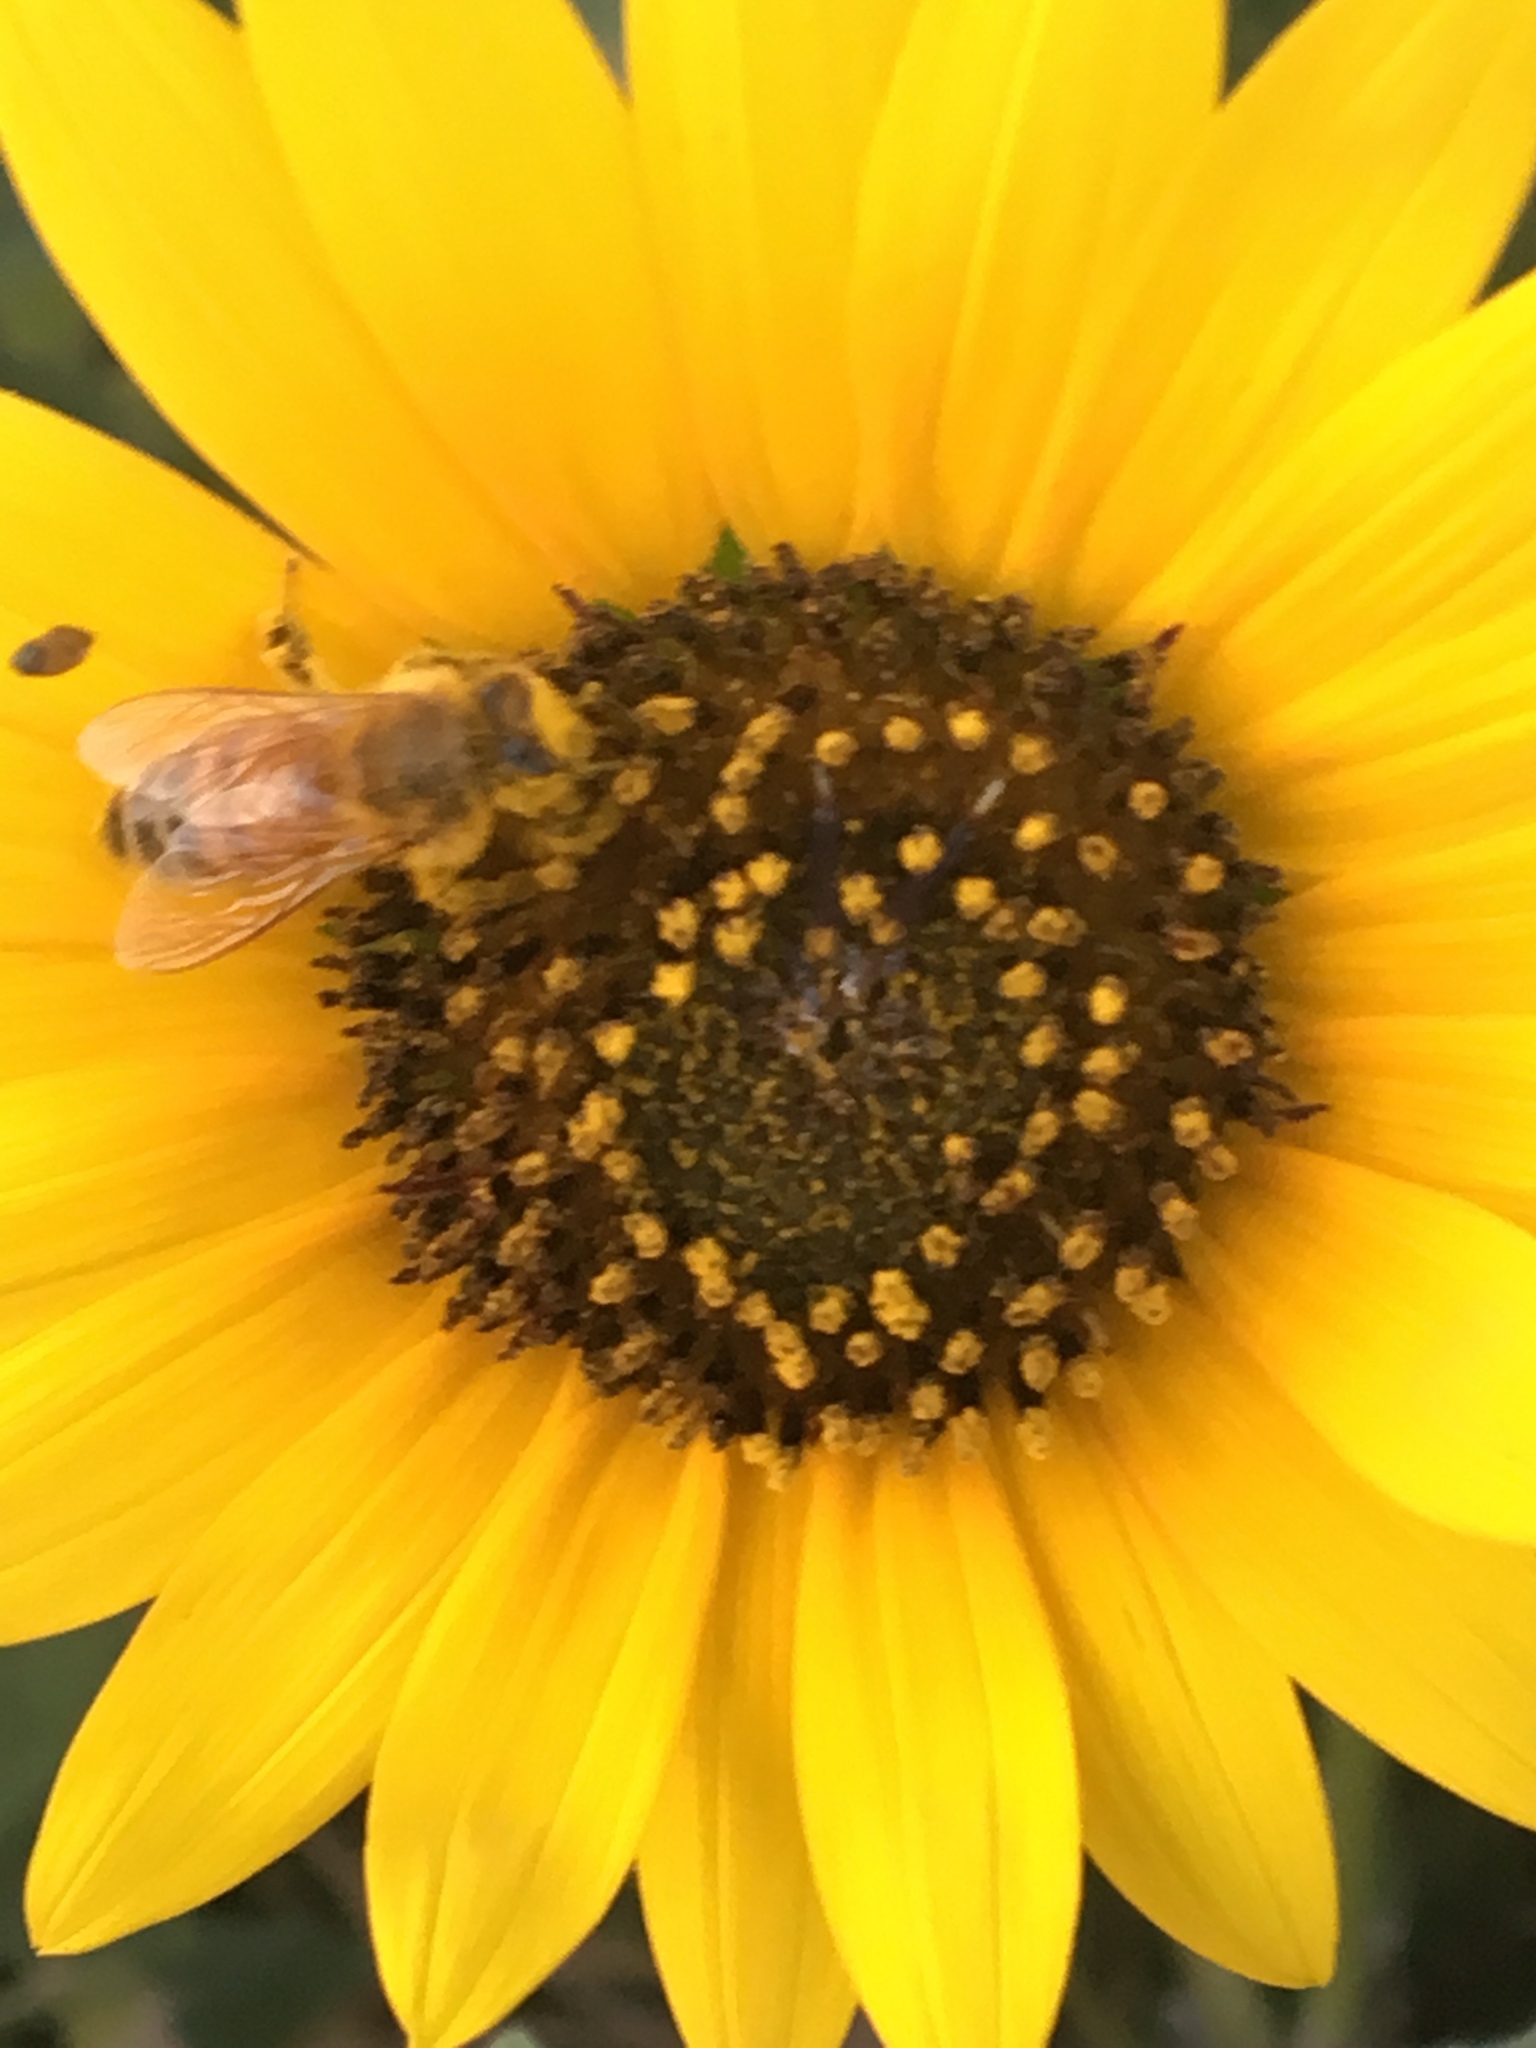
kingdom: Animalia
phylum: Arthropoda
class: Insecta
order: Hymenoptera
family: Apidae
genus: Apis
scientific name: Apis mellifera
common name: Honey bee
